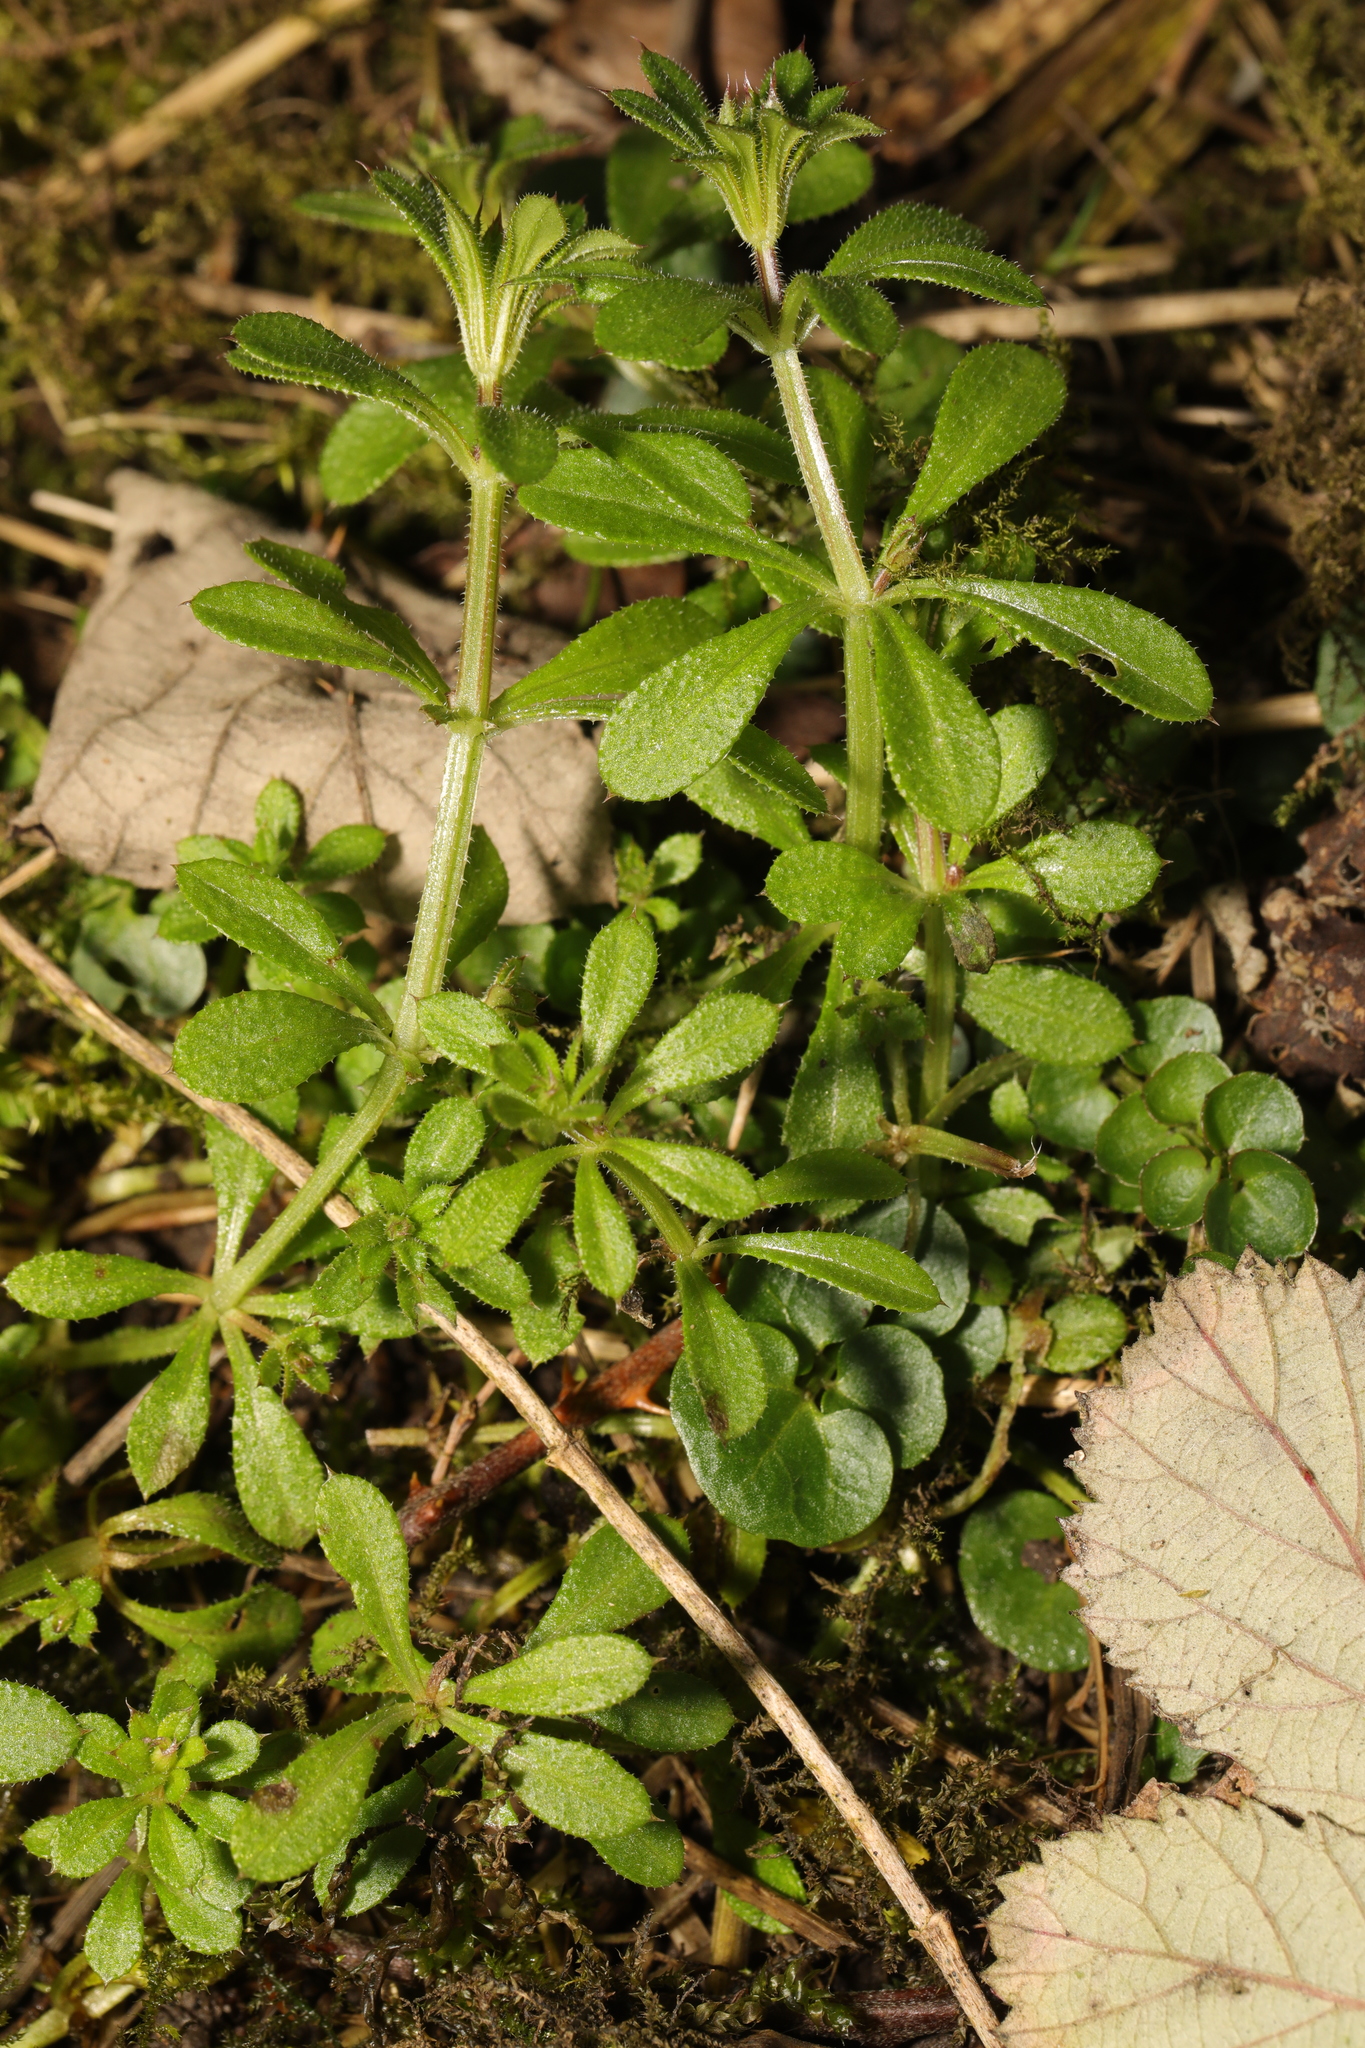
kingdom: Plantae
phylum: Tracheophyta
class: Magnoliopsida
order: Gentianales
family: Rubiaceae
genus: Galium
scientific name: Galium aparine
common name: Cleavers
